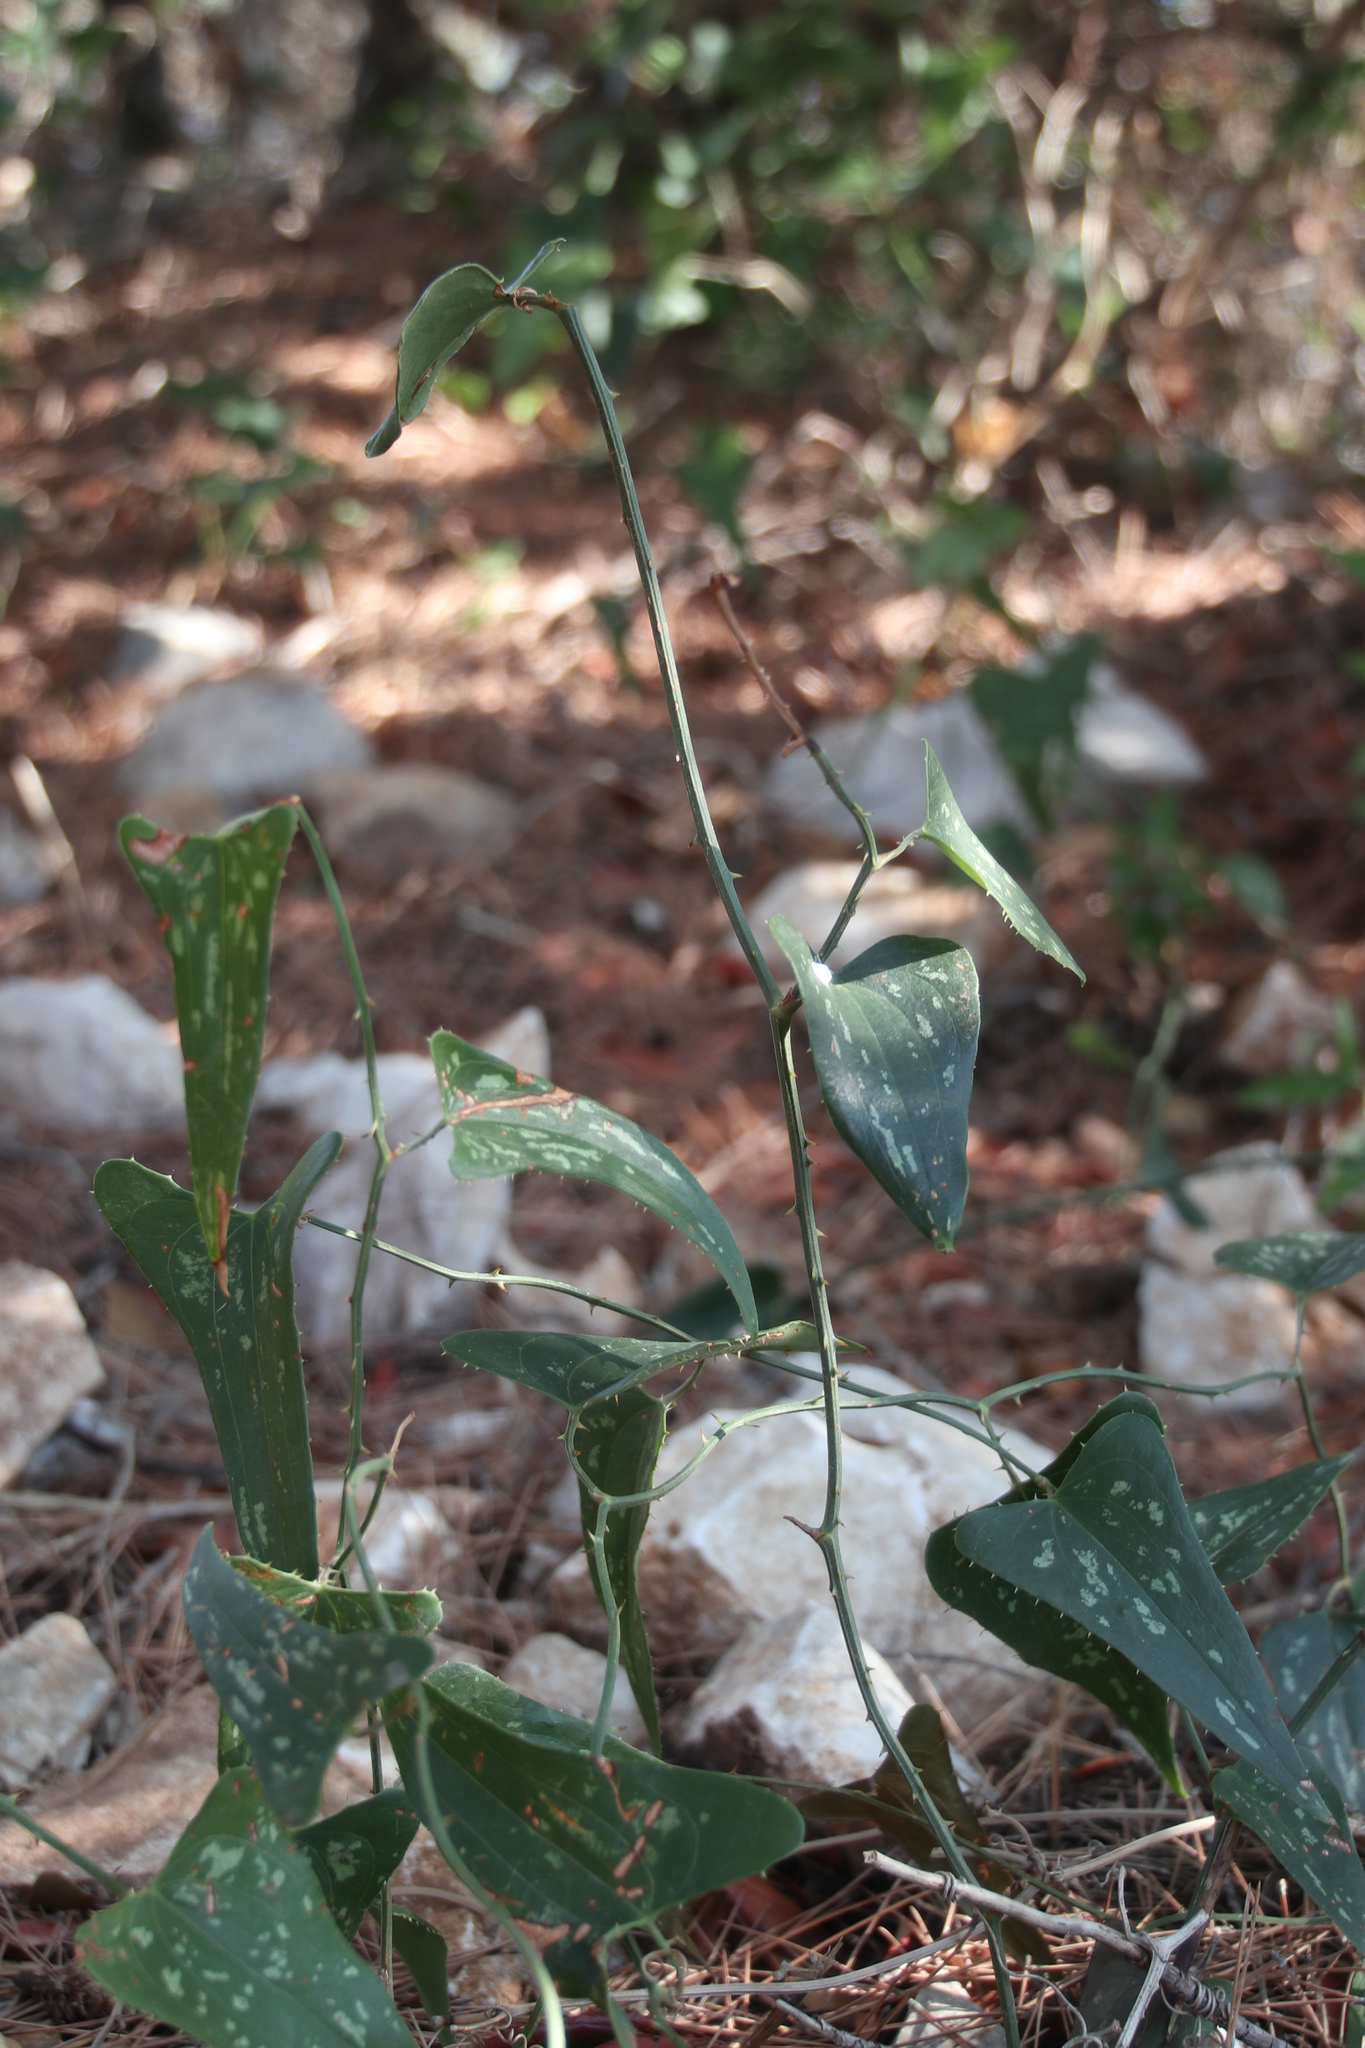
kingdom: Plantae
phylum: Tracheophyta
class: Liliopsida
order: Liliales
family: Smilacaceae
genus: Smilax
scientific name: Smilax aspera
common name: Common smilax
